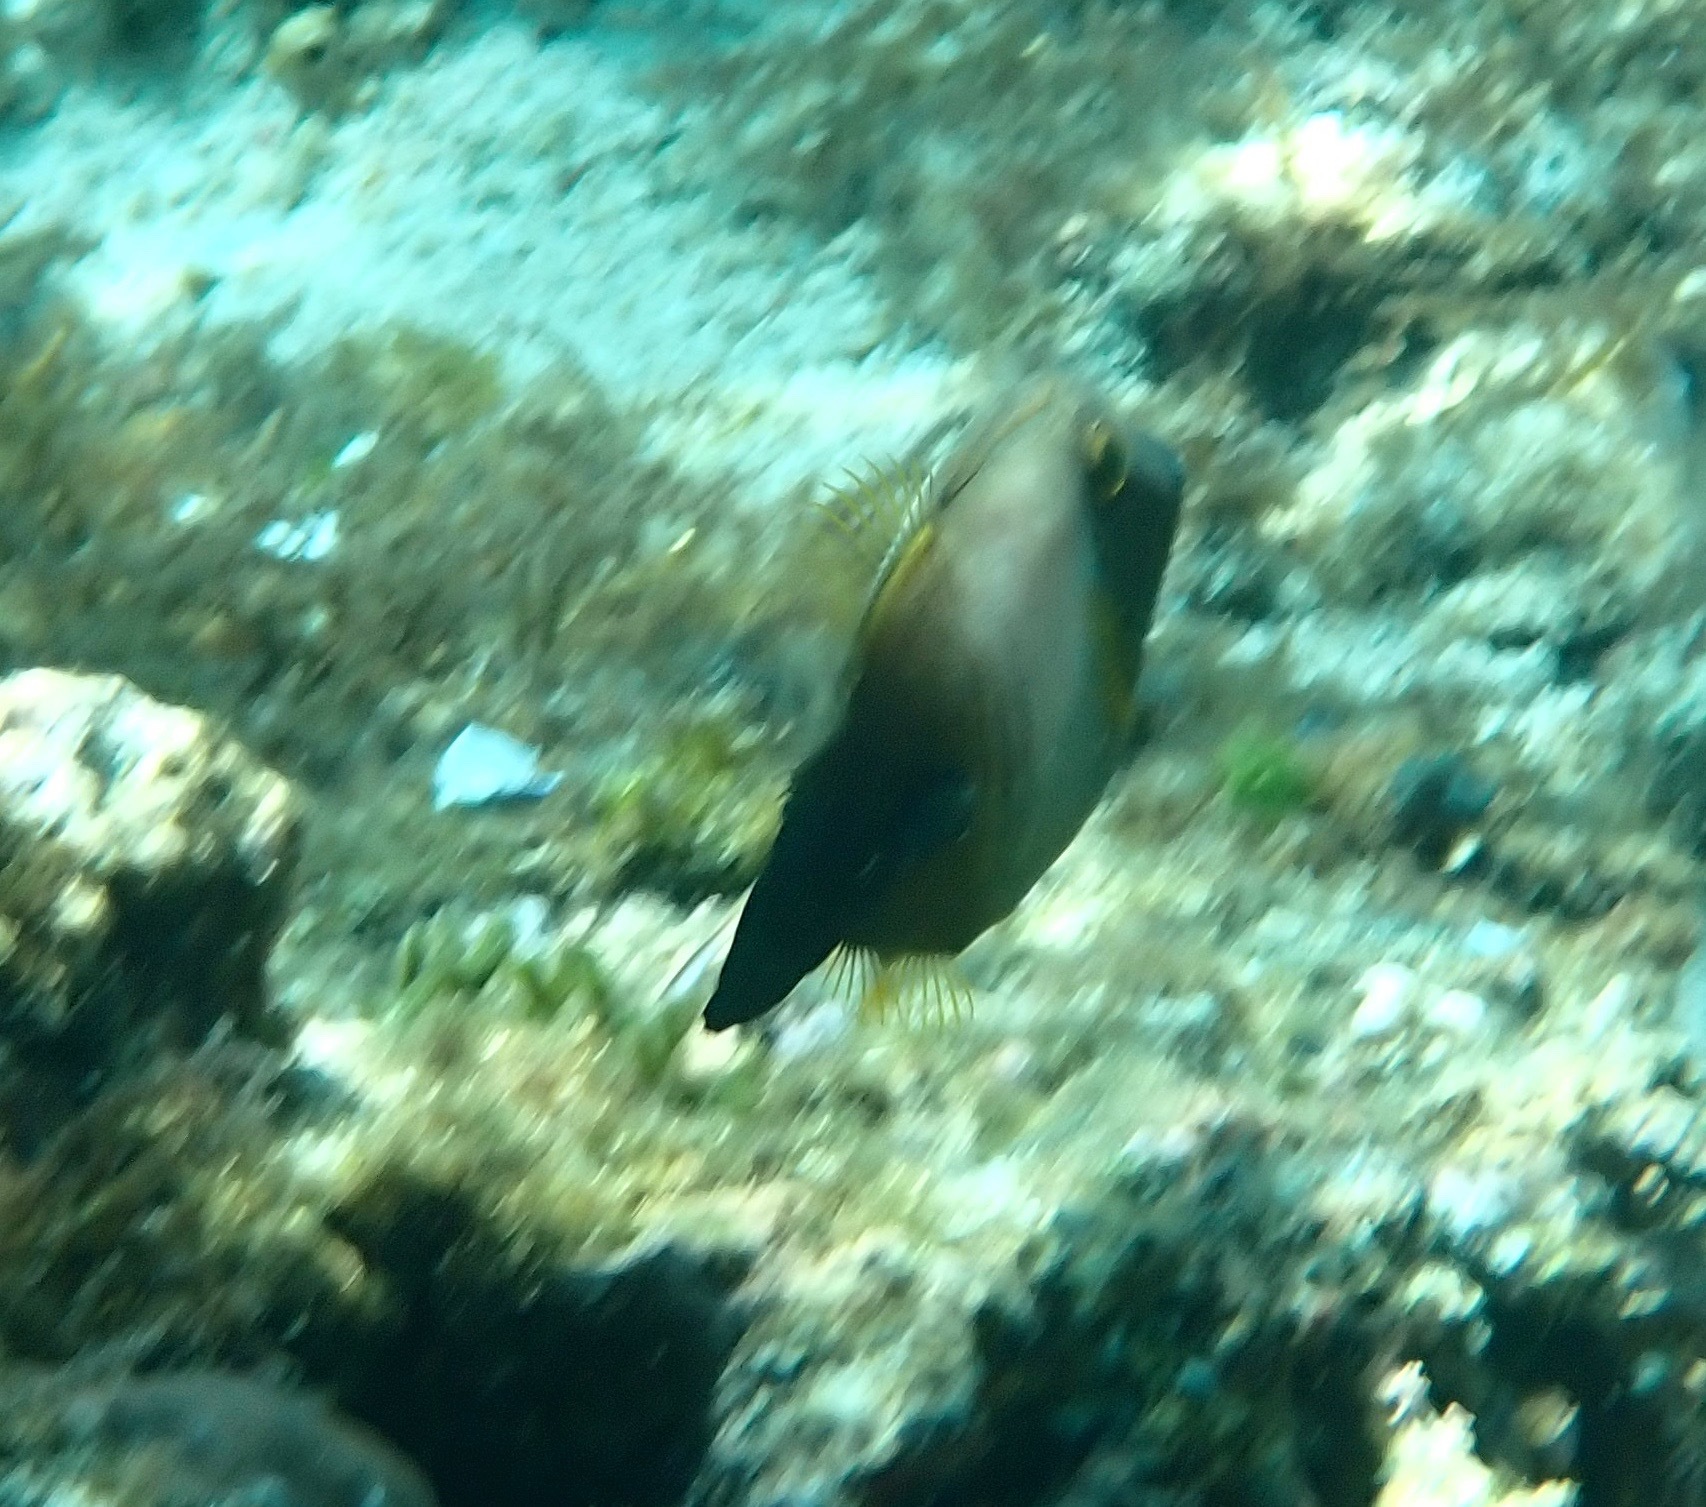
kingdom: Animalia
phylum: Chordata
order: Tetraodontiformes
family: Monacanthidae
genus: Amanses
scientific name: Amanses scopas
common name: Broom filefish
